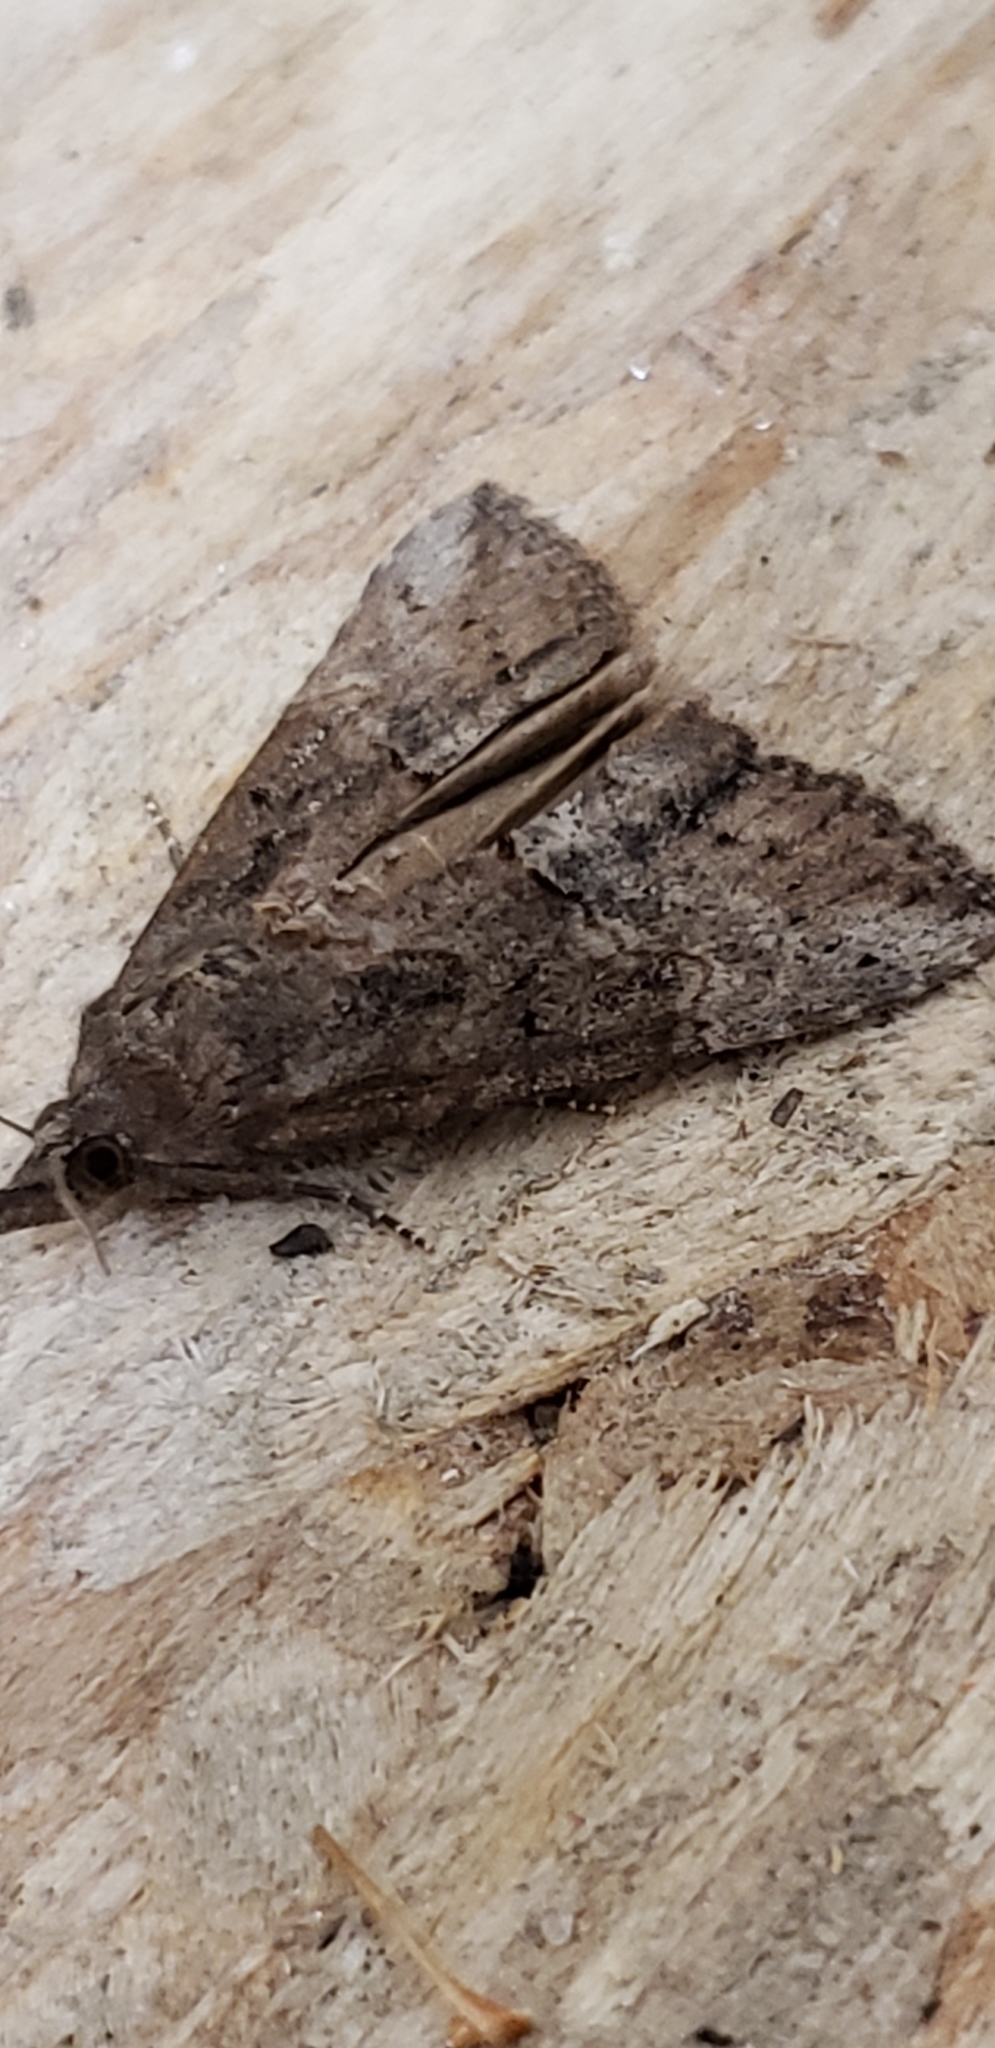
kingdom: Animalia
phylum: Arthropoda
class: Insecta
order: Lepidoptera
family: Erebidae
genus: Hypena
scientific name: Hypena scabra
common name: Green cloverworm
